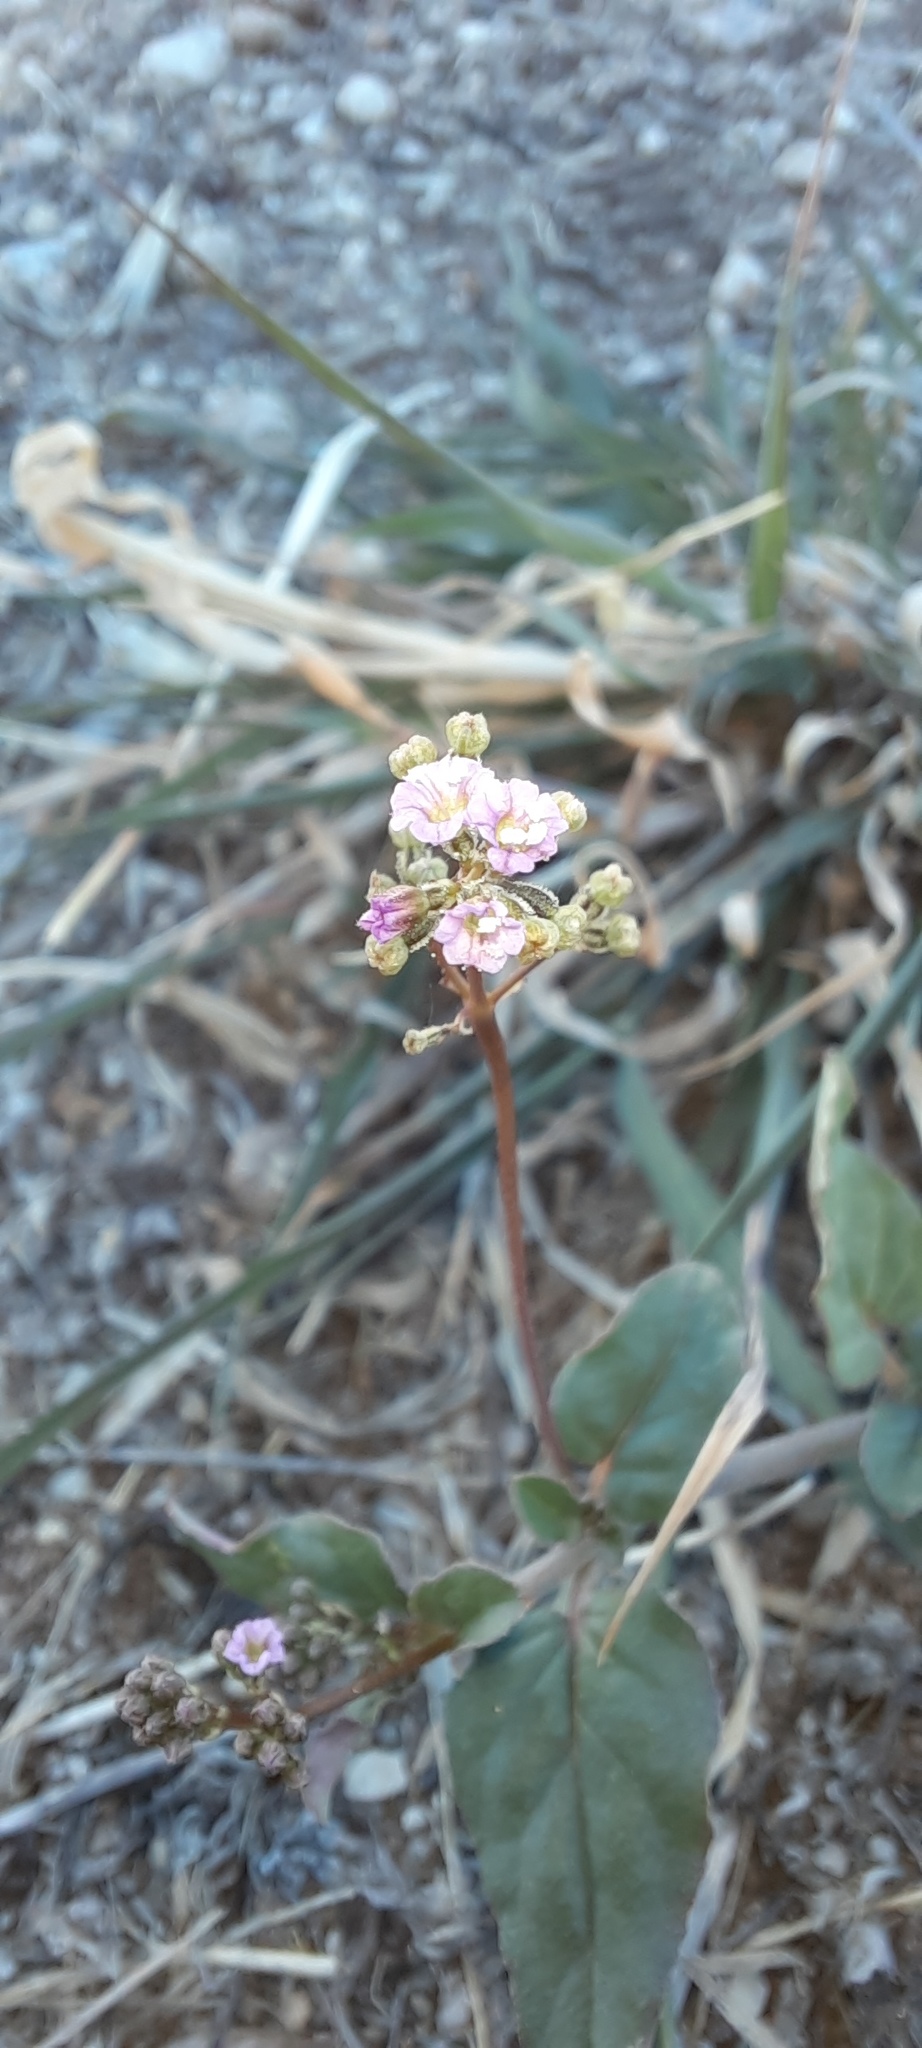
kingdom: Plantae
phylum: Tracheophyta
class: Magnoliopsida
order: Caryophyllales
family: Nyctaginaceae
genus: Boerhavia
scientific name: Boerhavia dominii
